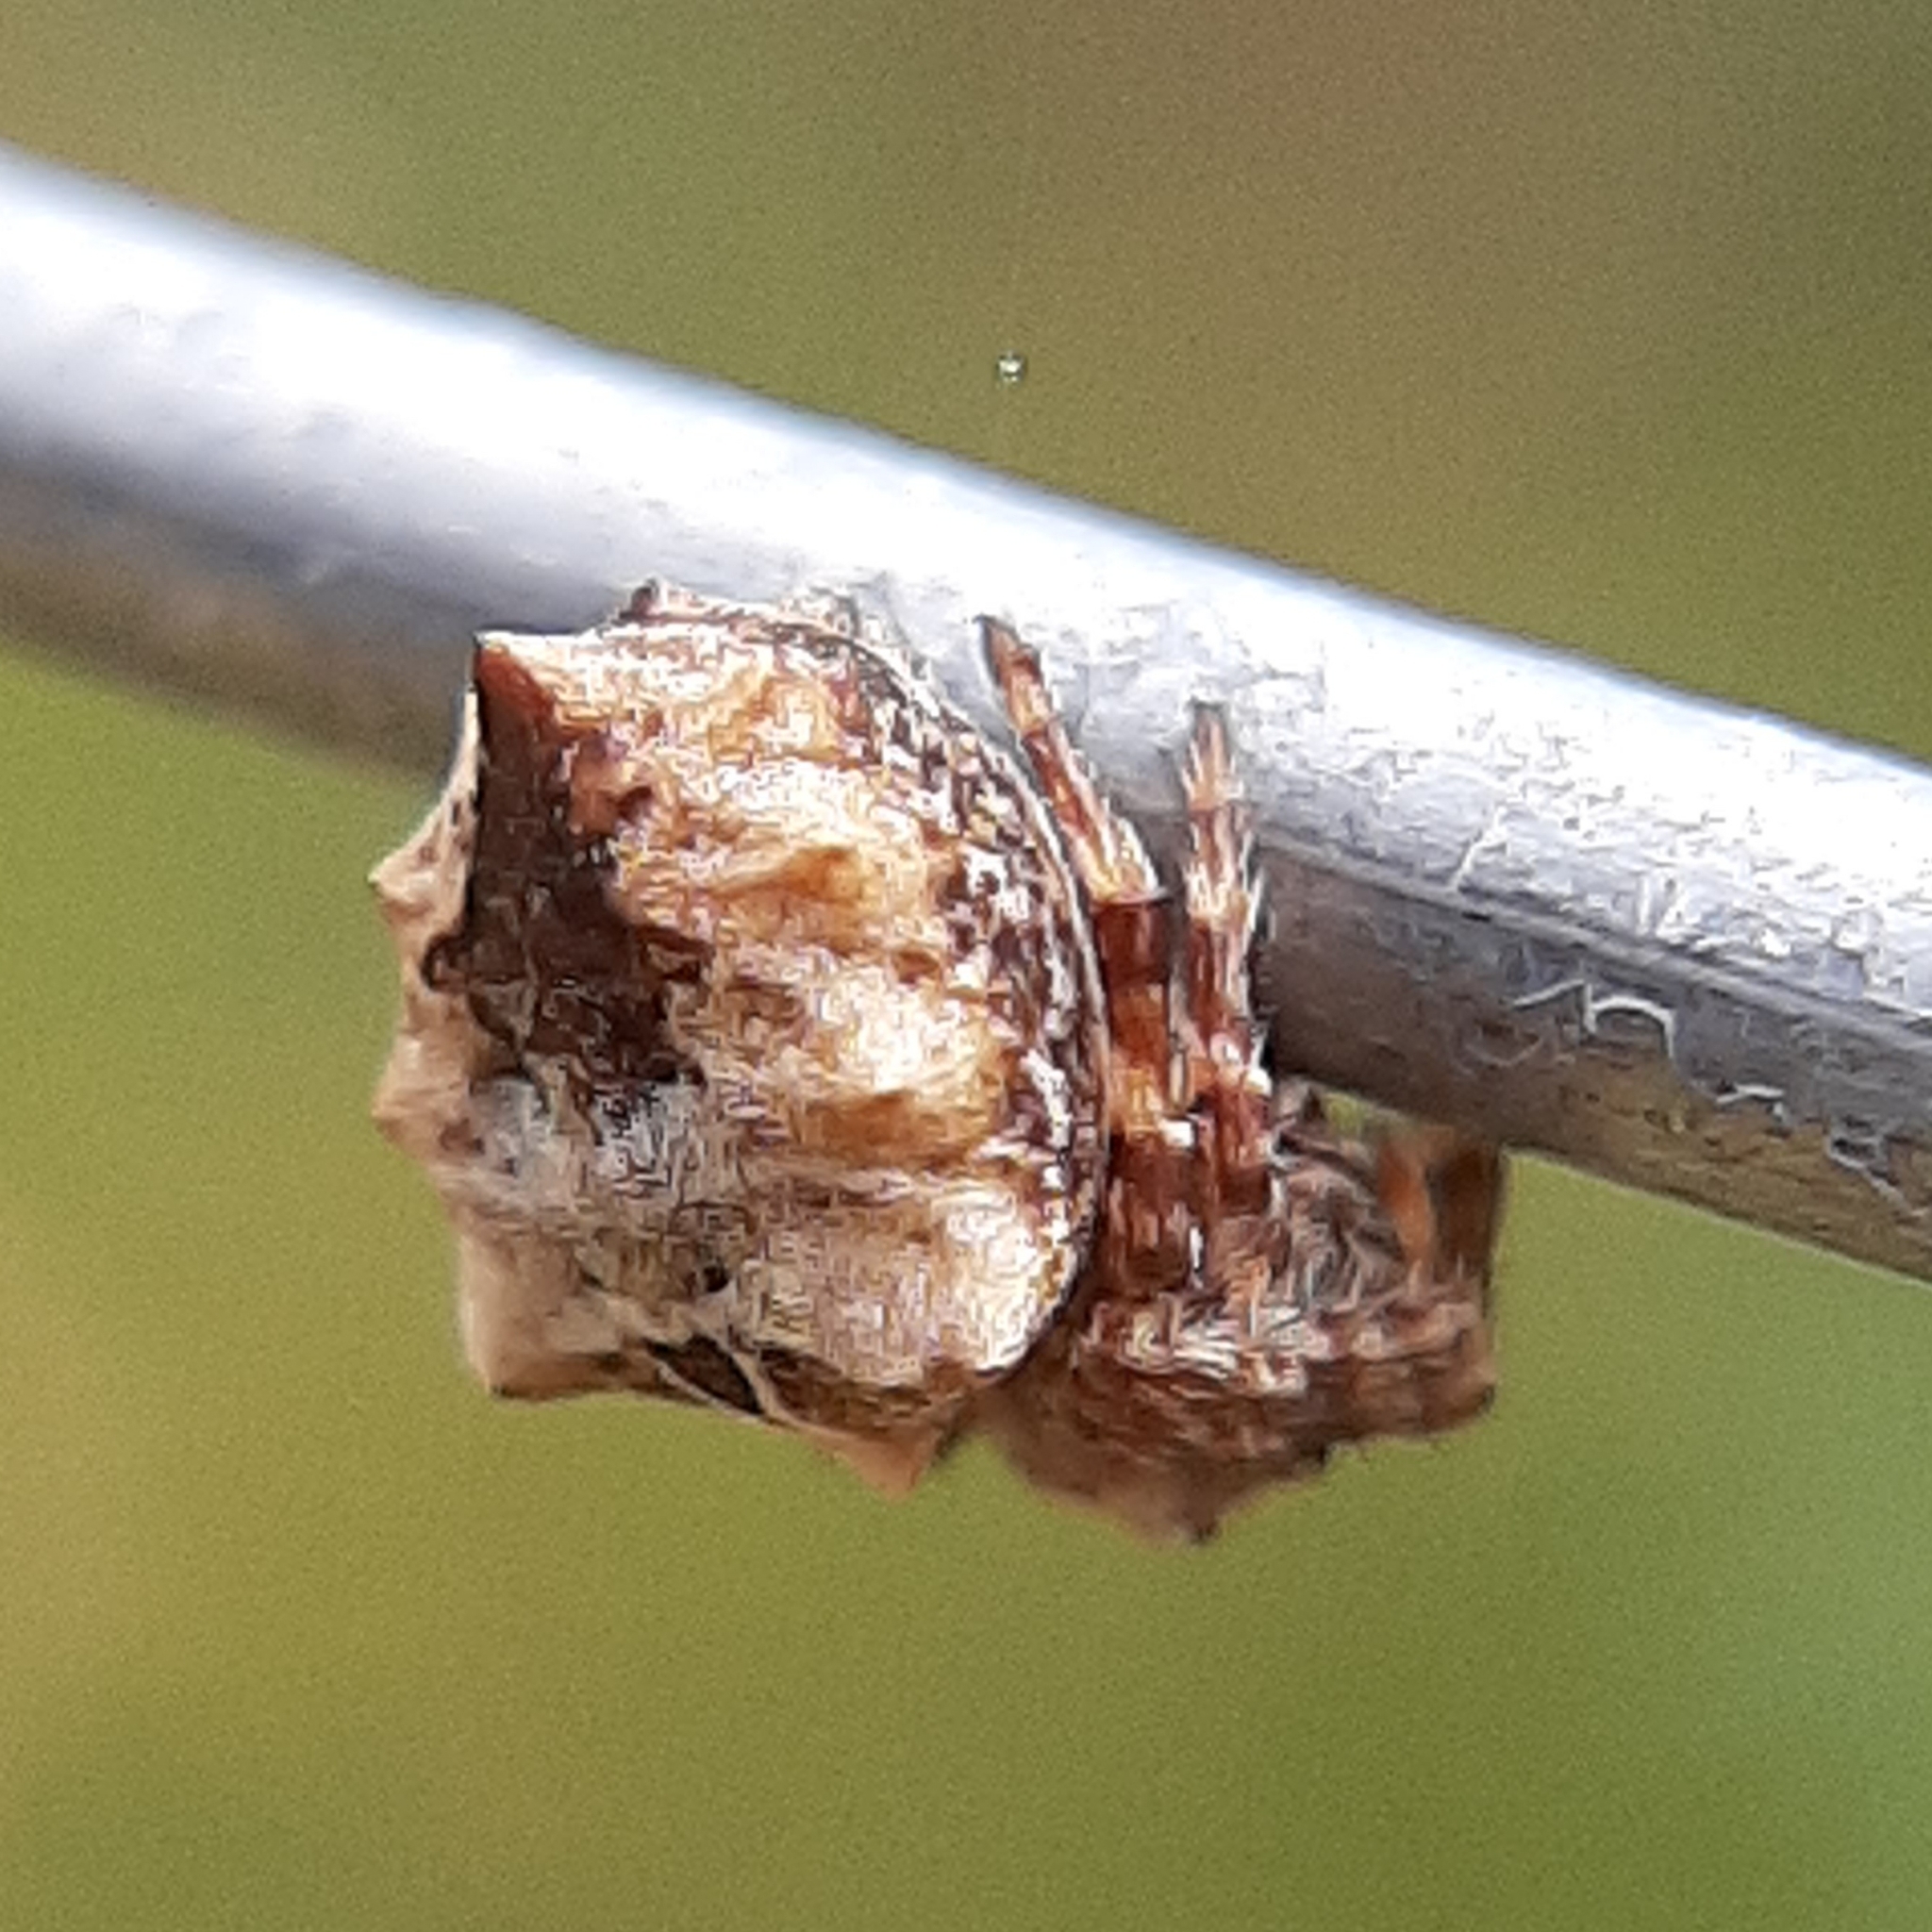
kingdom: Animalia
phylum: Arthropoda
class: Arachnida
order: Araneae
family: Araneidae
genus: Acanthepeira
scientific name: Acanthepeira stellata
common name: Starbellied orbweaver
